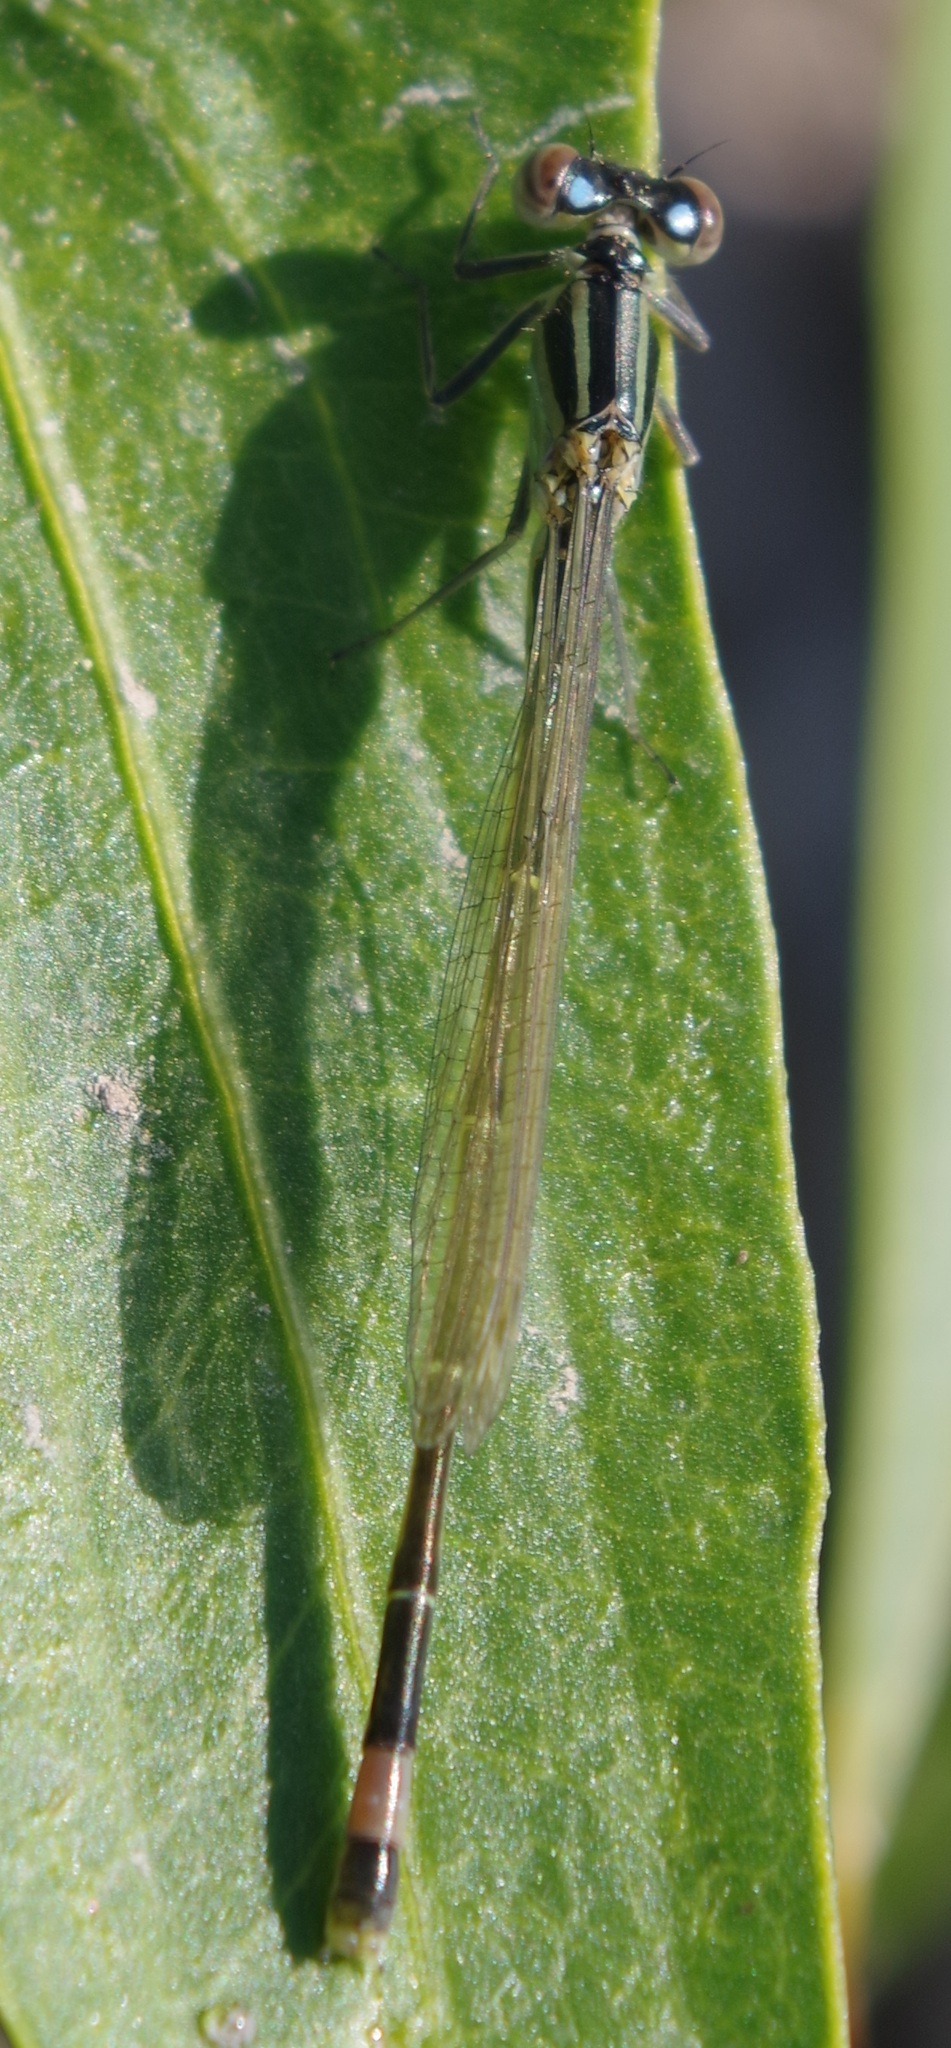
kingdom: Animalia
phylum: Arthropoda
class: Insecta
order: Odonata
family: Coenagrionidae
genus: Ischnura
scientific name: Ischnura elegans
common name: Blue-tailed damselfly
